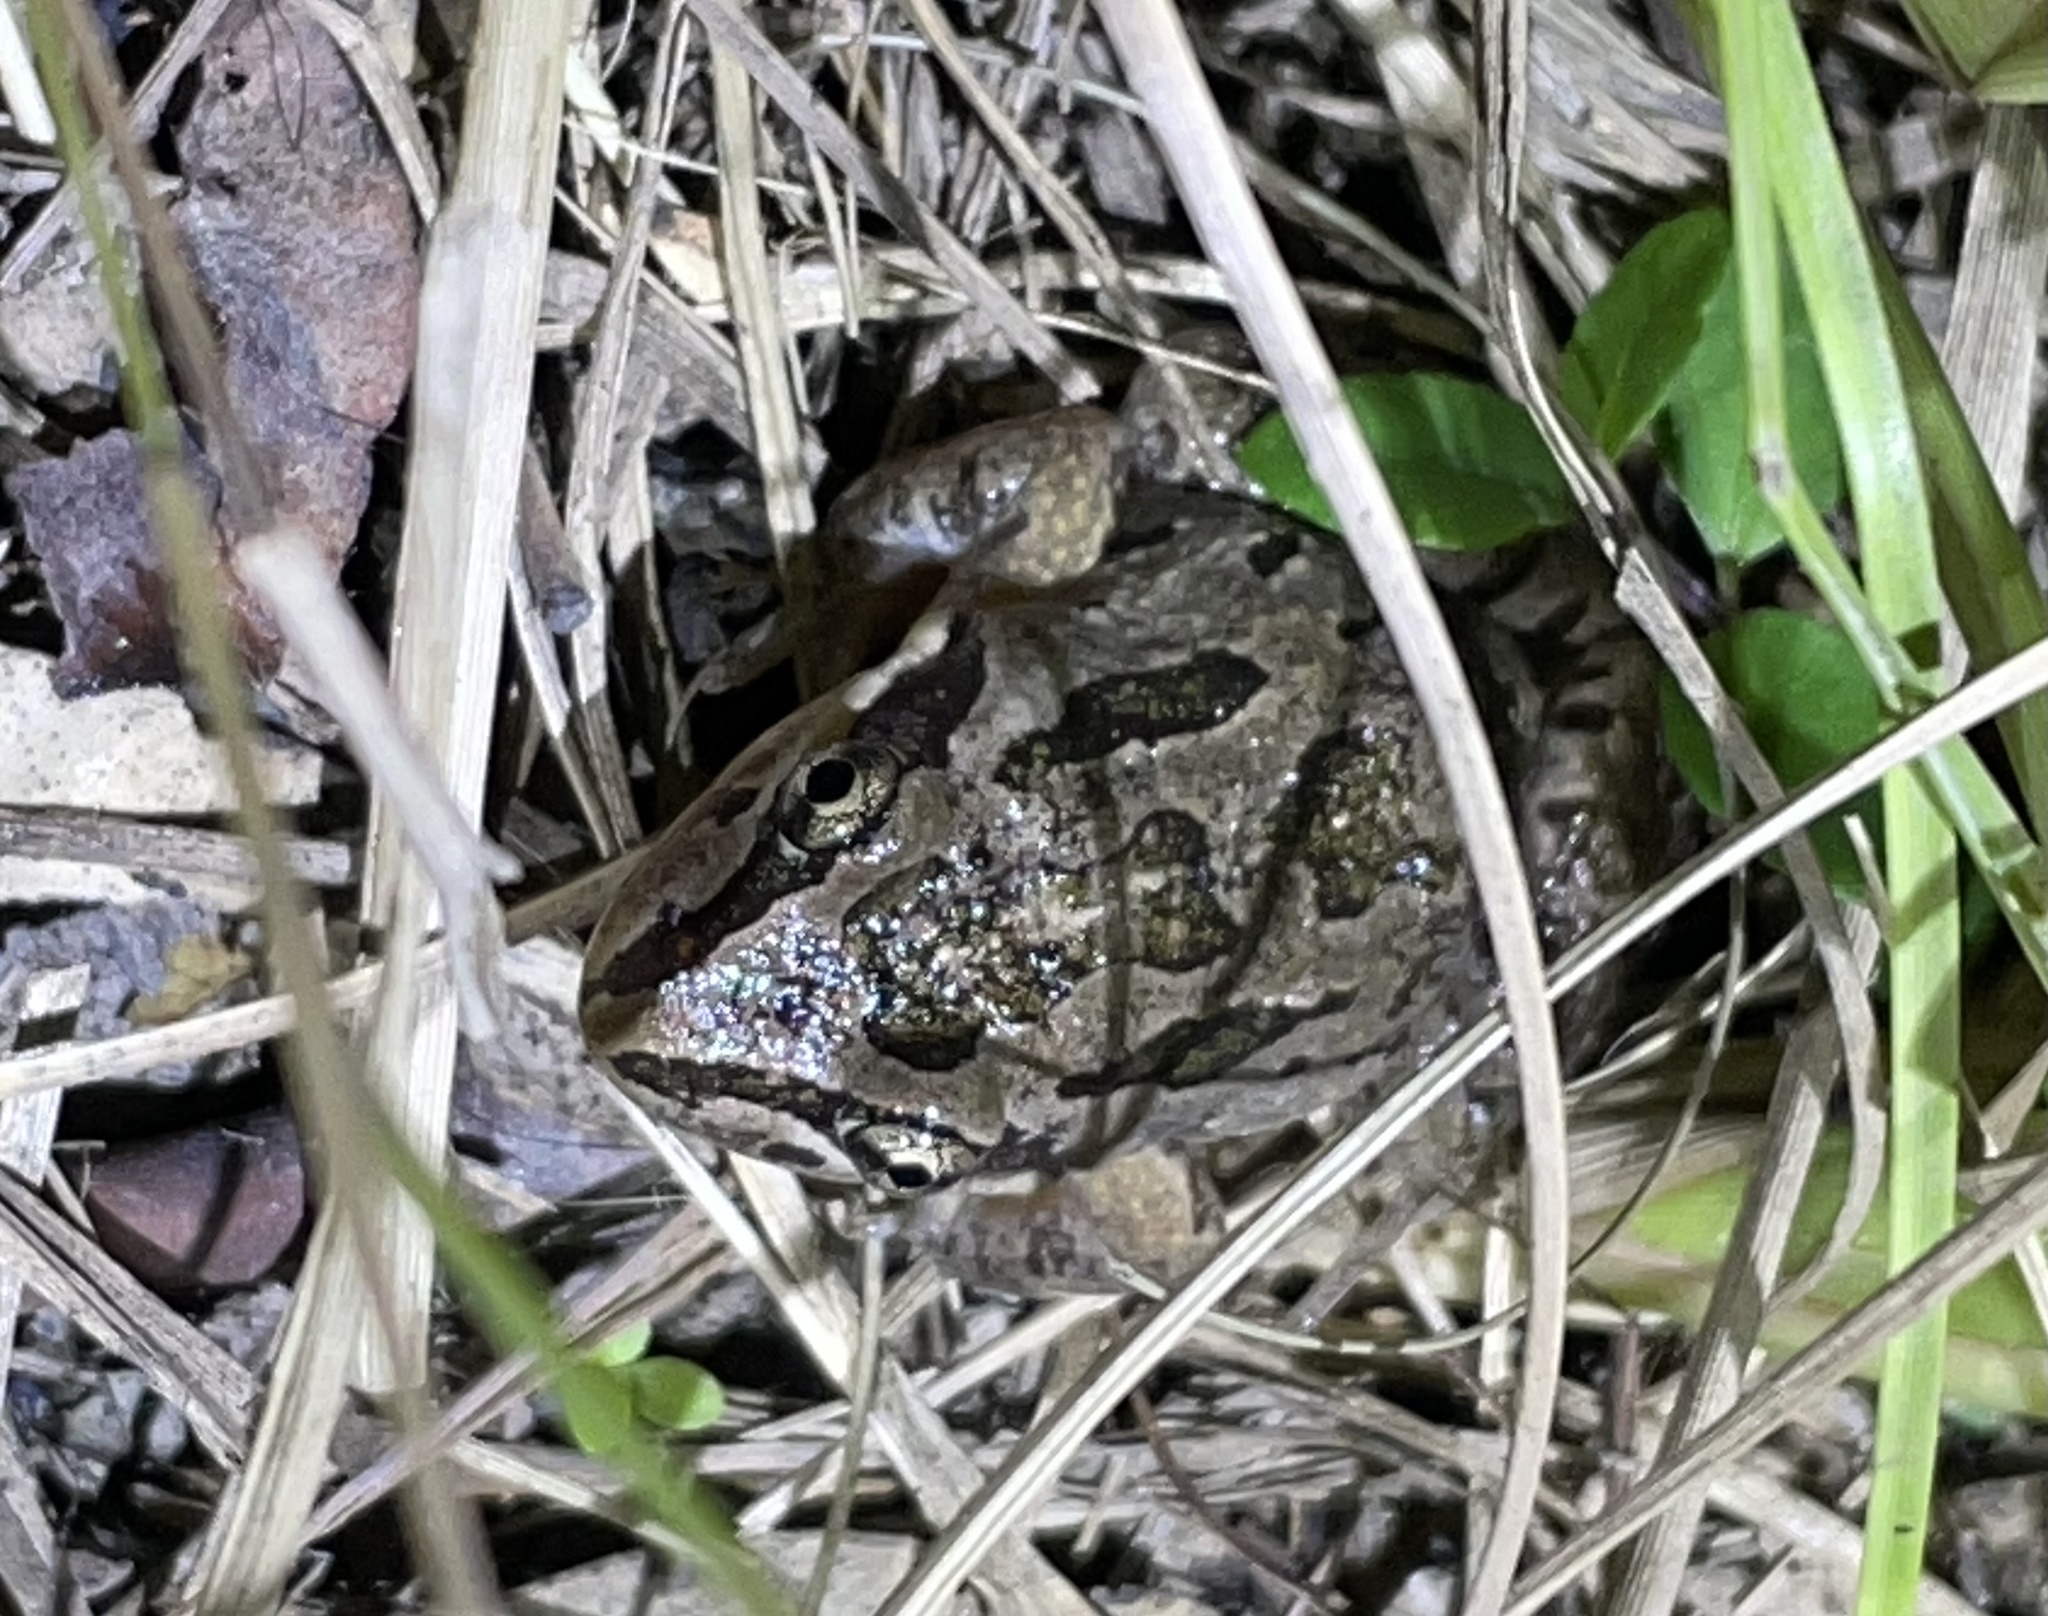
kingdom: Animalia
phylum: Chordata
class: Amphibia
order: Anura
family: Limnodynastidae
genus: Limnodynastes
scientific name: Limnodynastes tasmaniensis
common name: Spotted marsh frog
